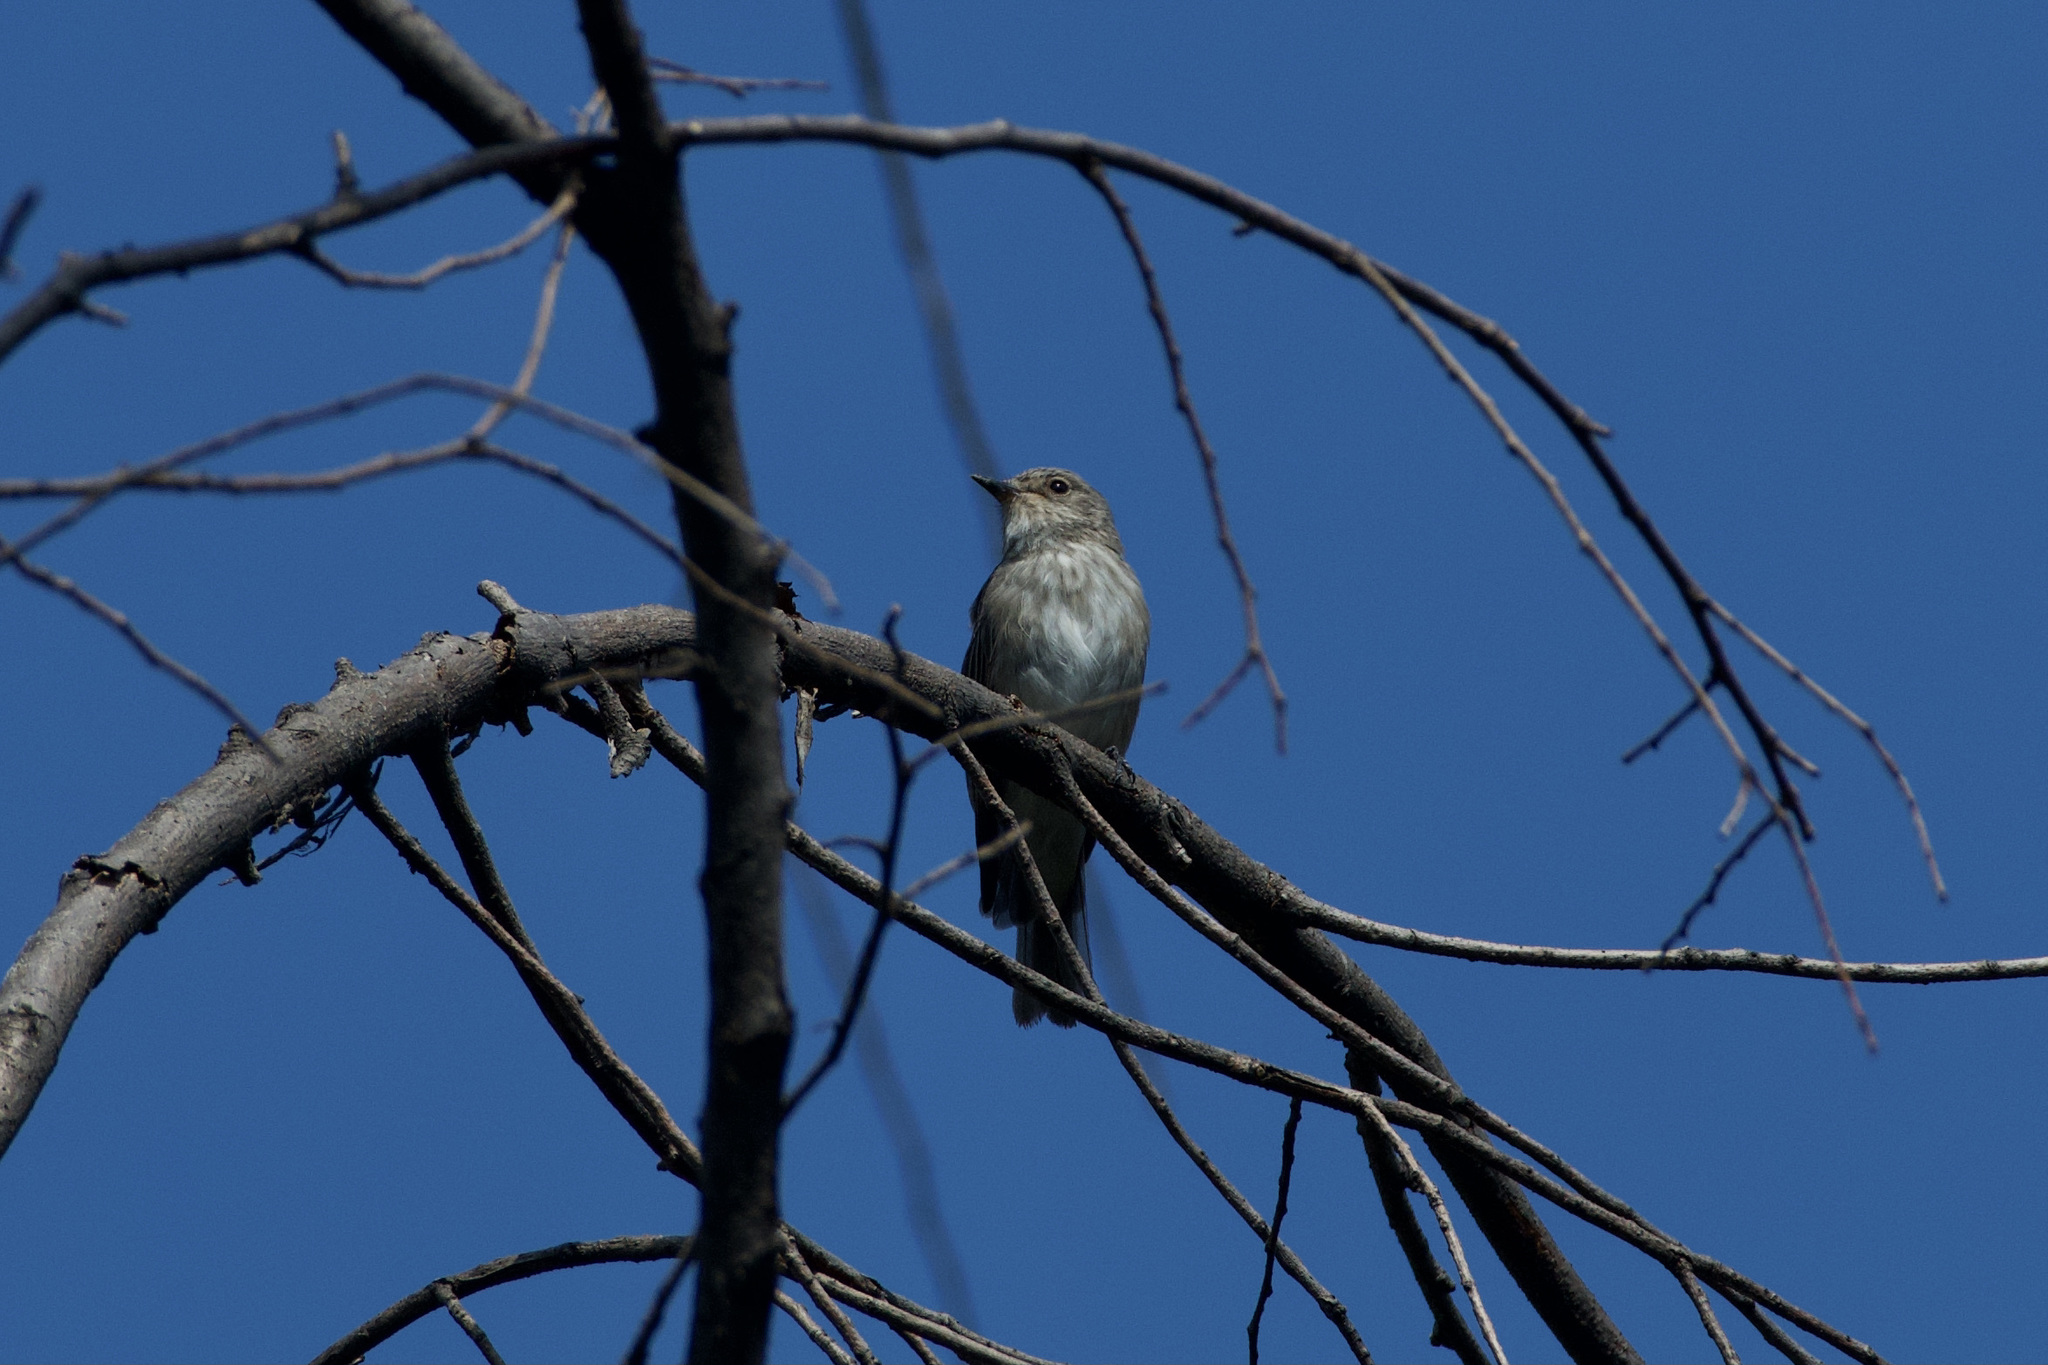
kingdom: Animalia
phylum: Chordata
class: Aves
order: Passeriformes
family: Muscicapidae
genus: Muscicapa
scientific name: Muscicapa striata
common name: Spotted flycatcher
